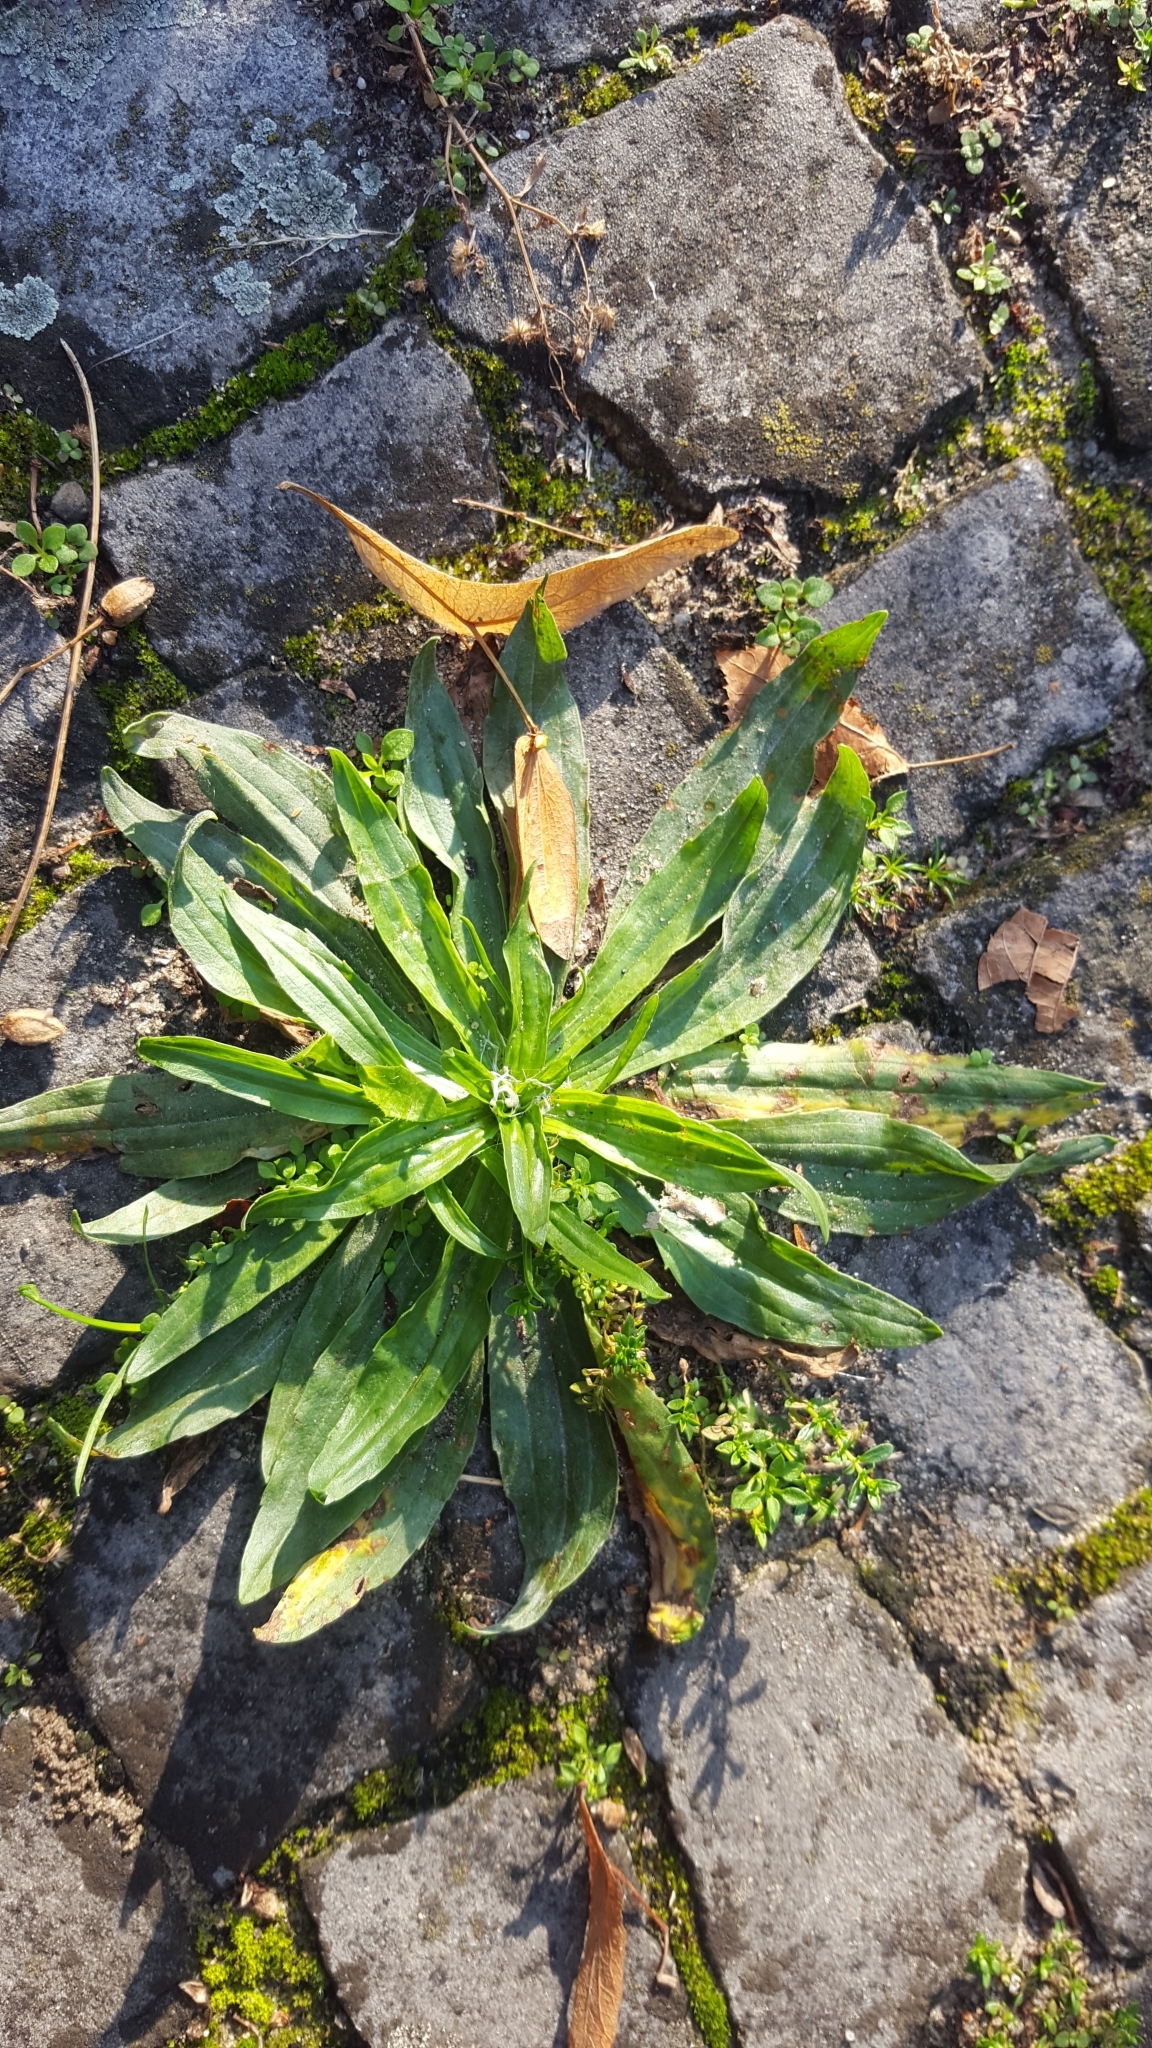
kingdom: Plantae
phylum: Tracheophyta
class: Magnoliopsida
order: Lamiales
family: Plantaginaceae
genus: Plantago
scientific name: Plantago lanceolata
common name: Ribwort plantain
